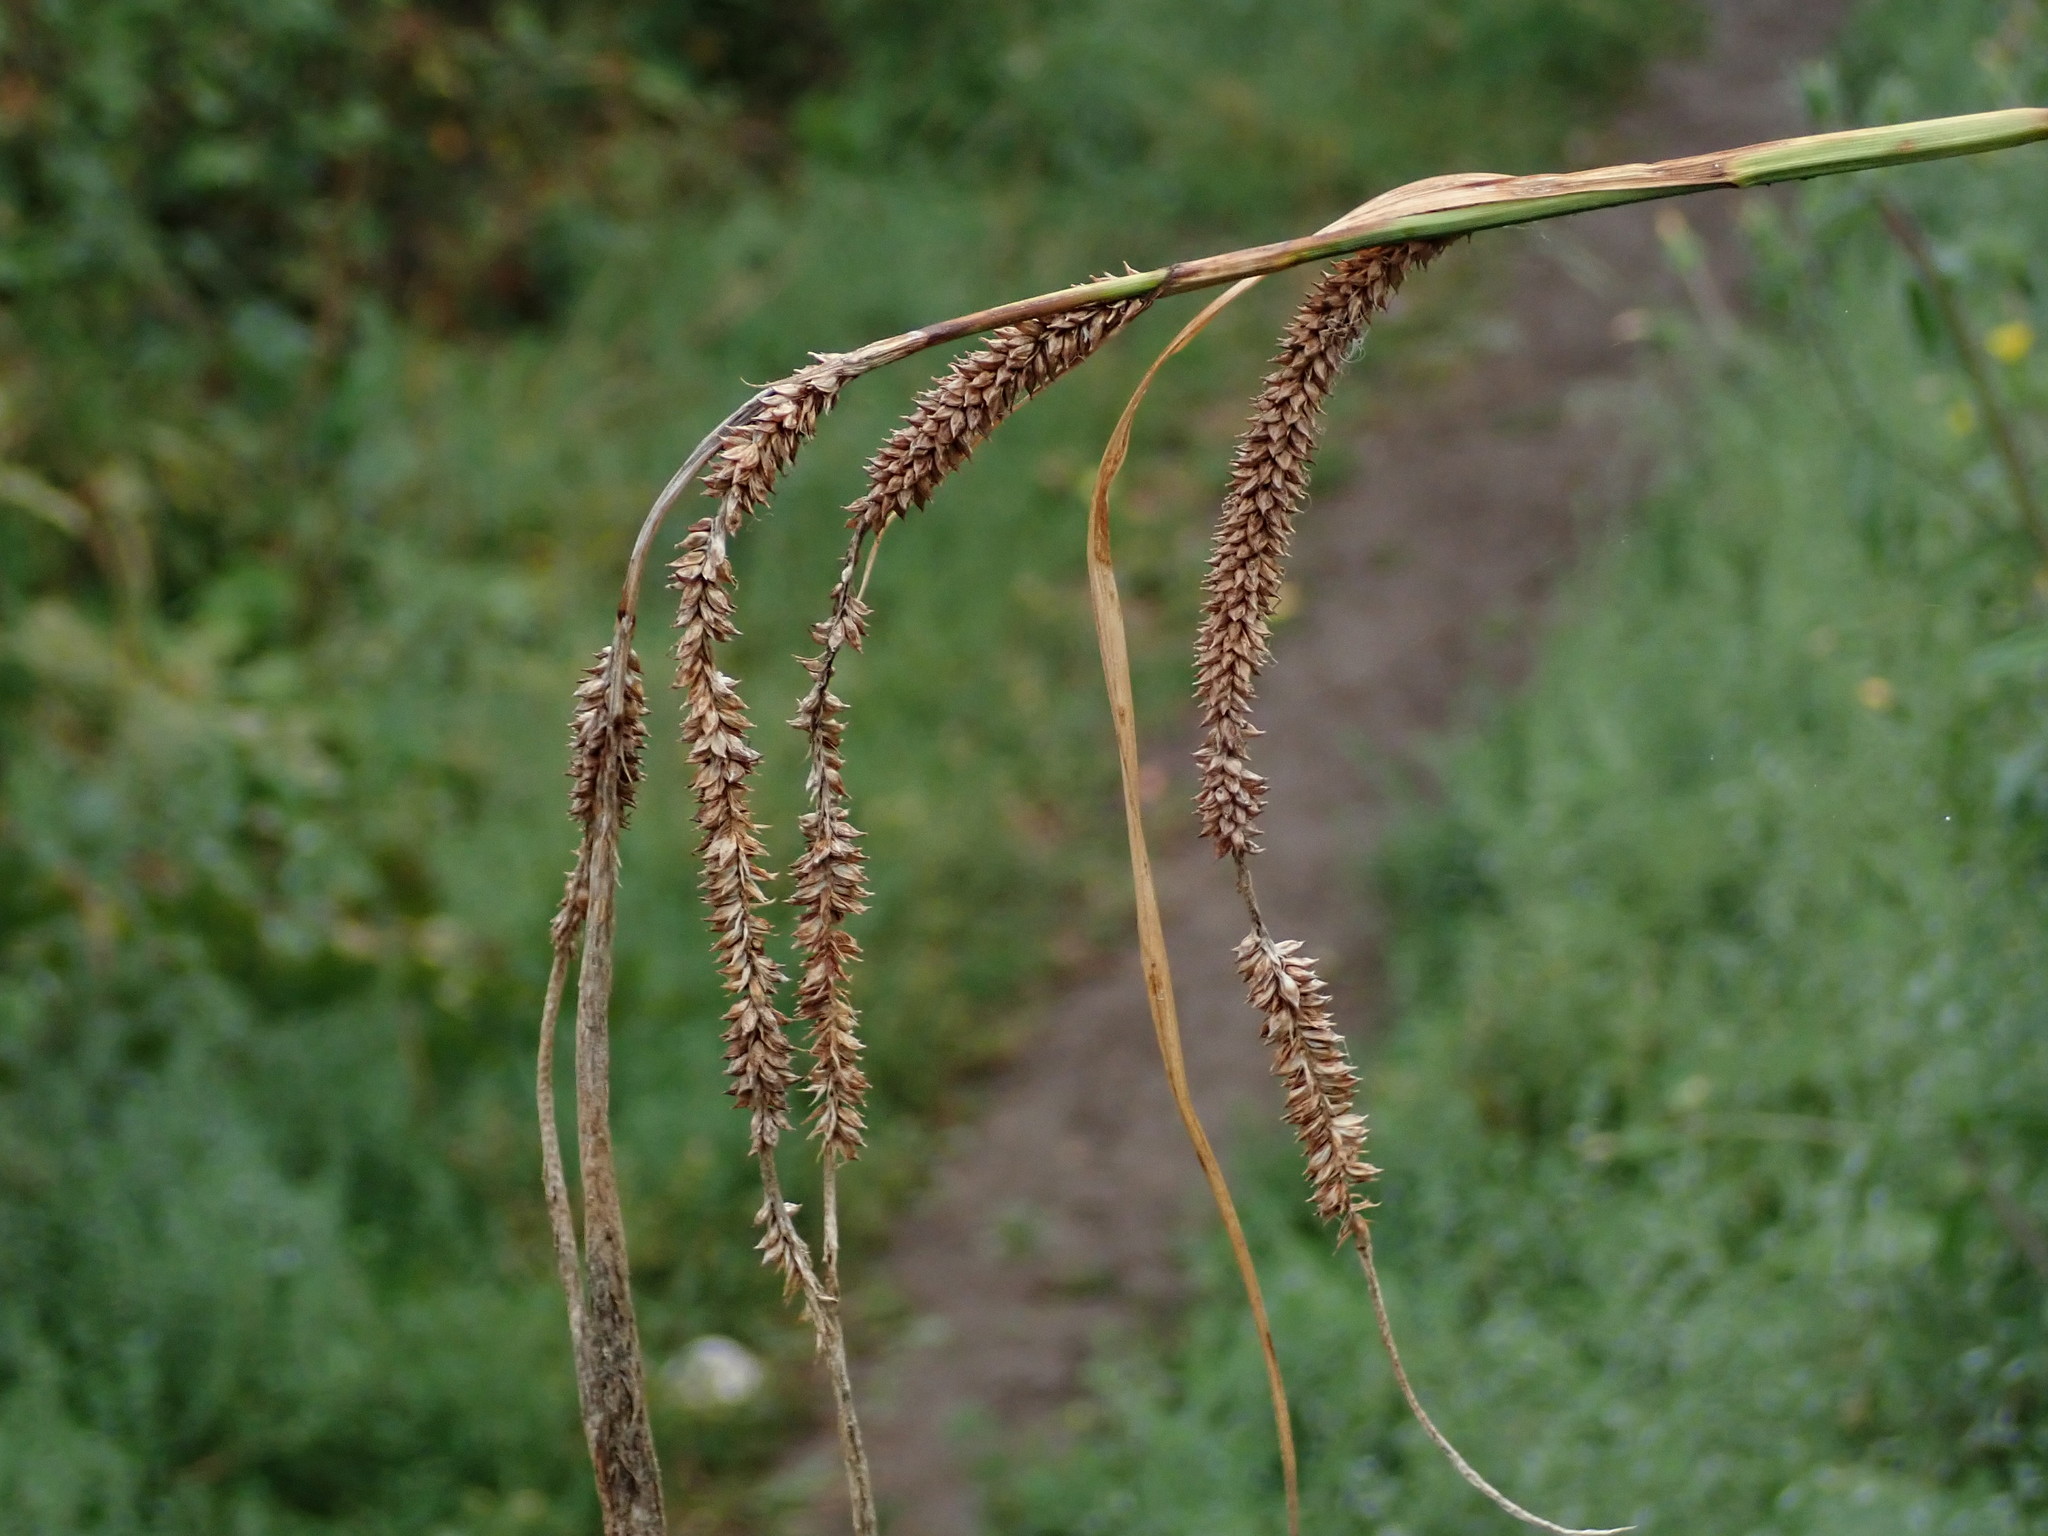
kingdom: Plantae
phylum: Tracheophyta
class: Liliopsida
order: Poales
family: Cyperaceae
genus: Carex
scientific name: Carex pendula
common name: Pendulous sedge
